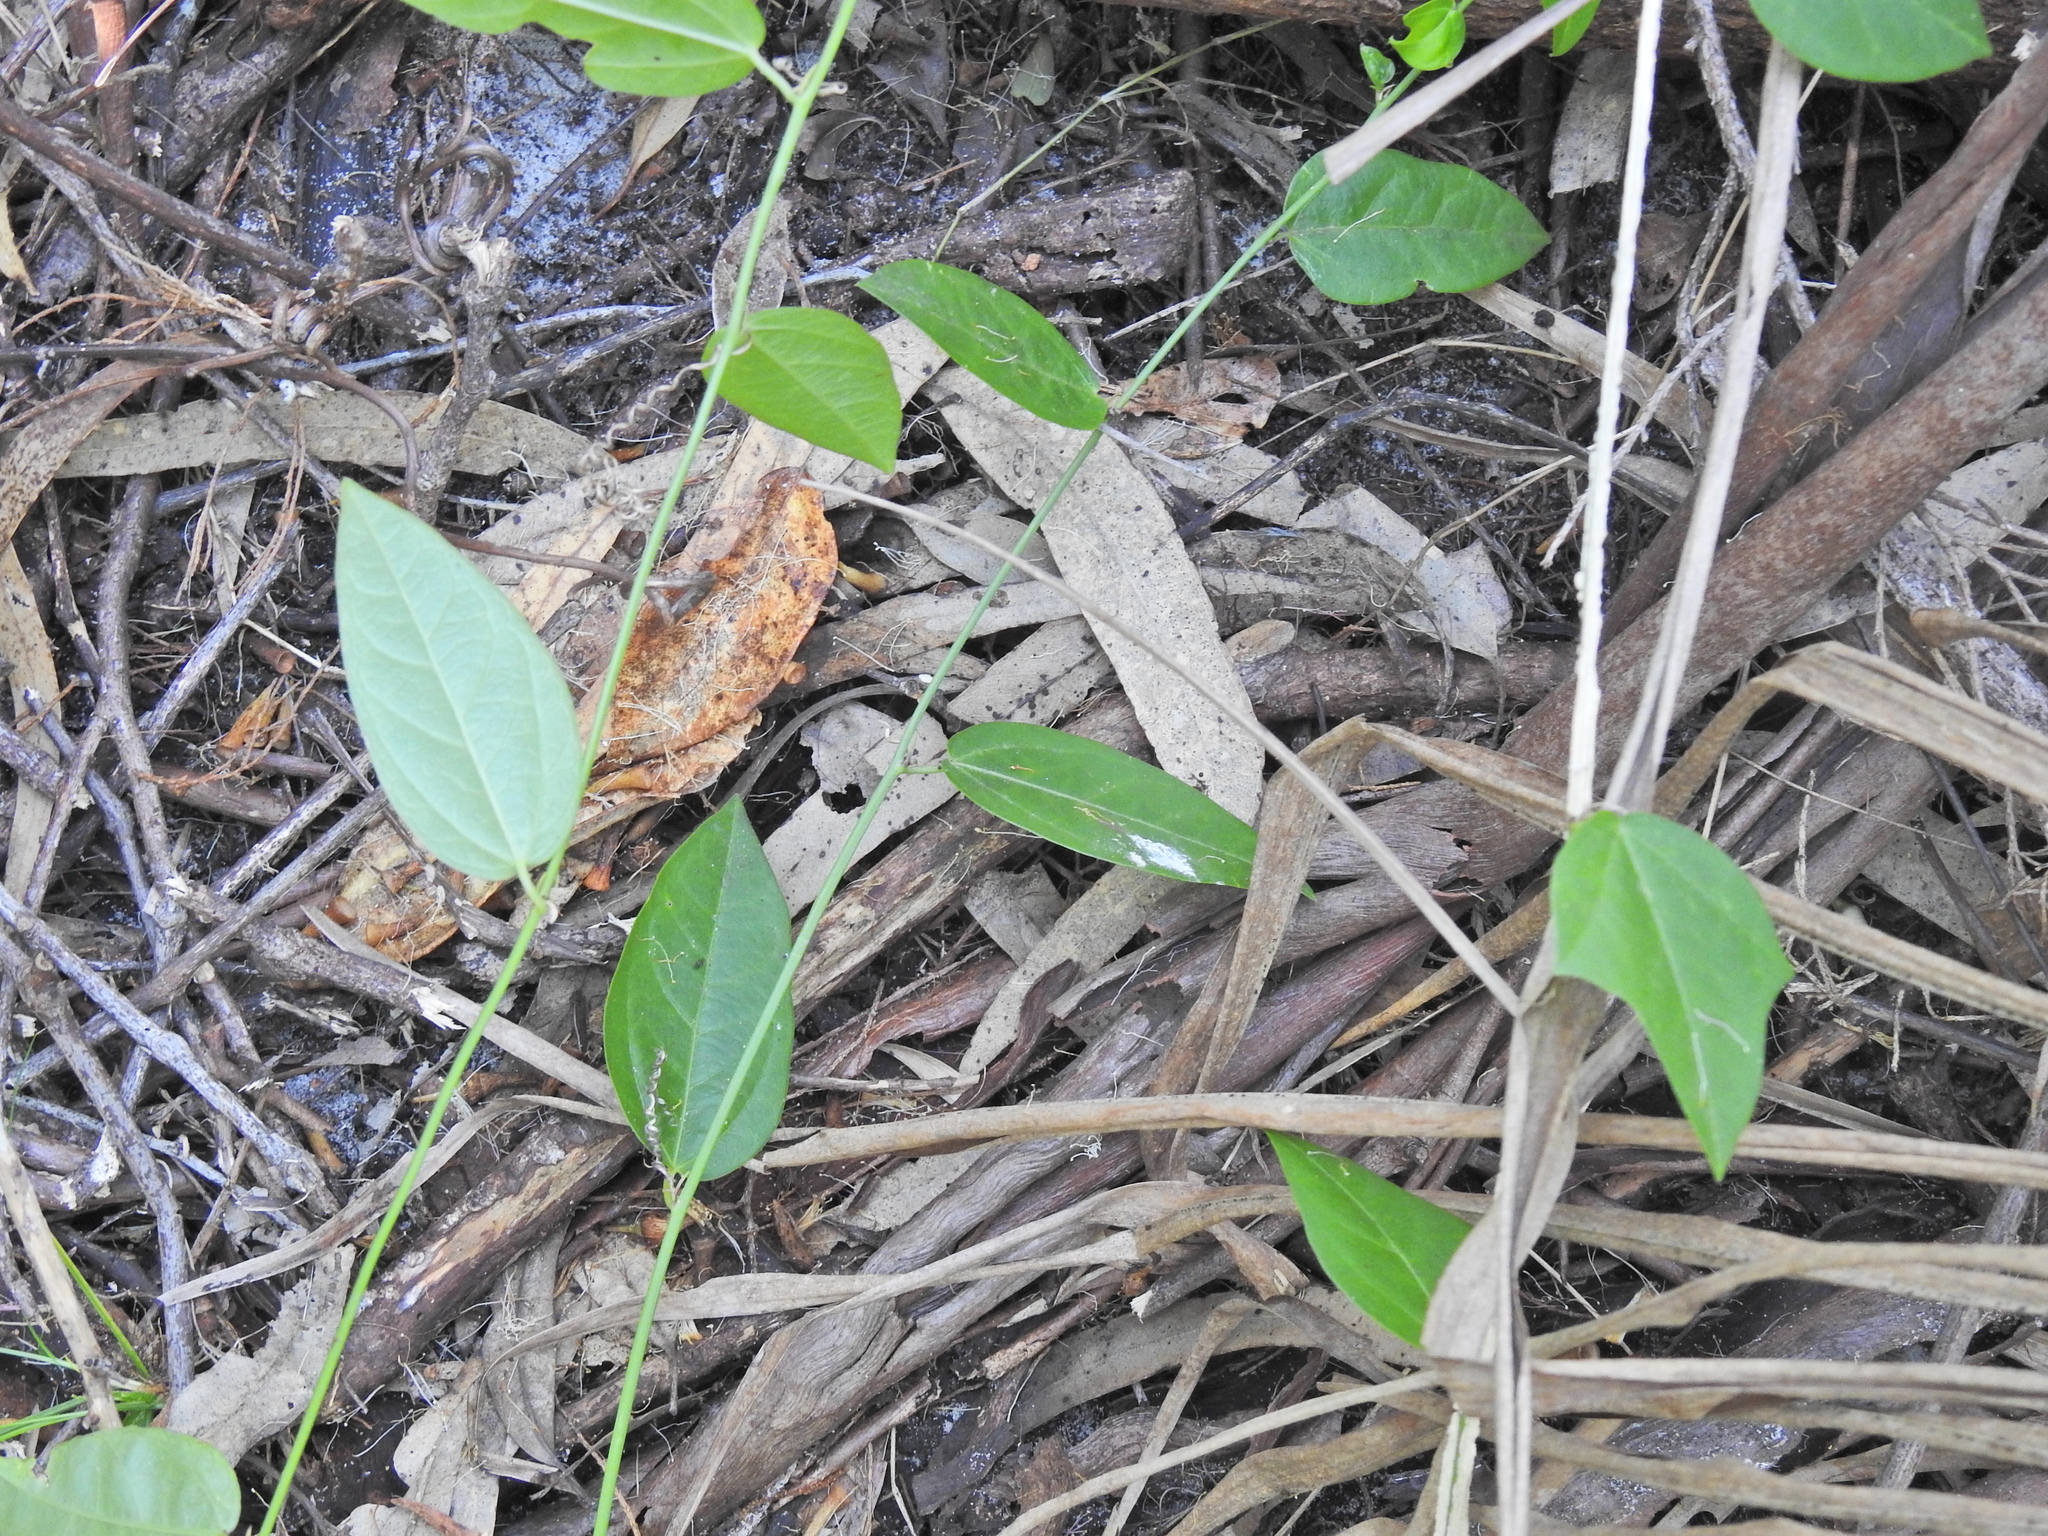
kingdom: Plantae
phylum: Tracheophyta
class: Magnoliopsida
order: Malpighiales
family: Passifloraceae
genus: Passiflora
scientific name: Passiflora pallida
